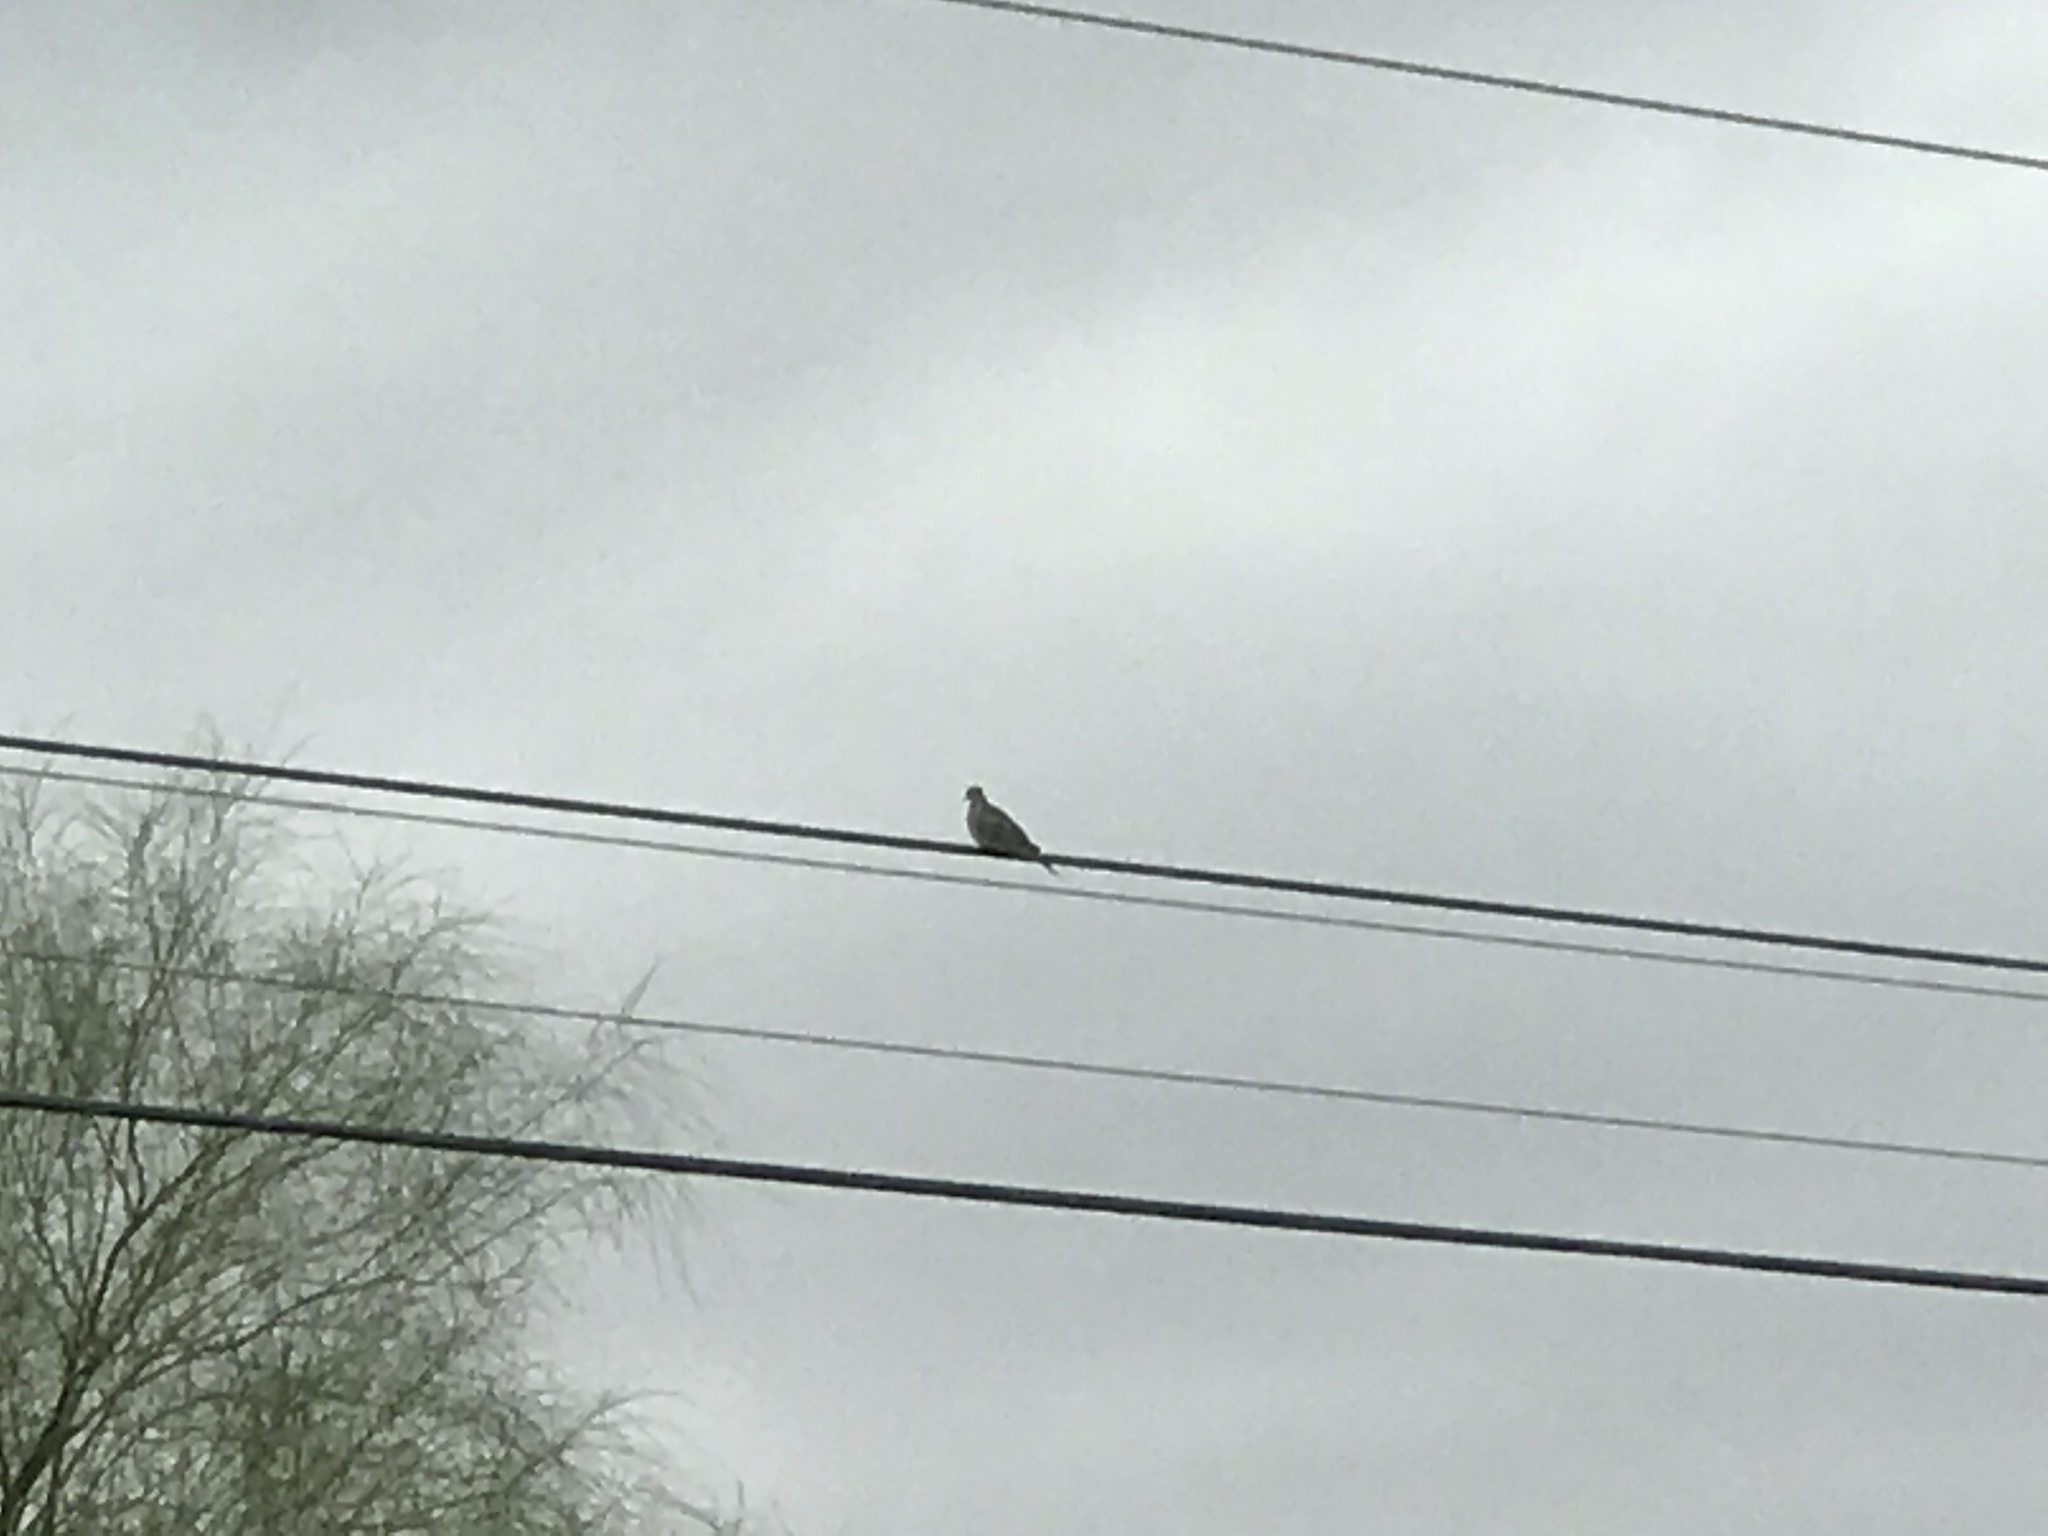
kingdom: Animalia
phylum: Chordata
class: Aves
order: Columbiformes
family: Columbidae
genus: Zenaida
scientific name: Zenaida macroura
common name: Mourning dove
